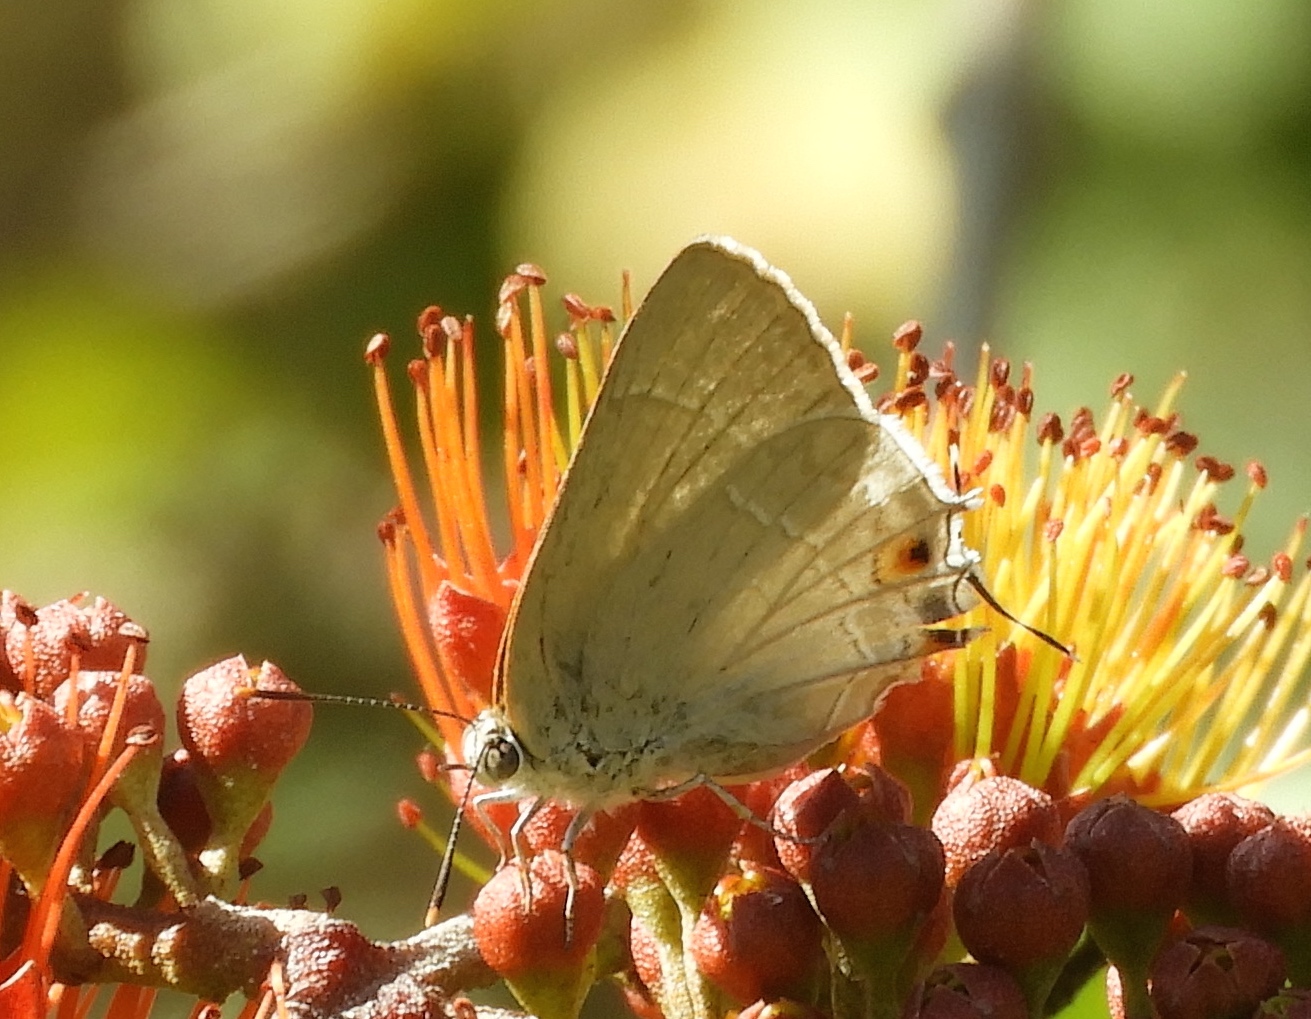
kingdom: Animalia
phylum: Arthropoda
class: Insecta
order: Lepidoptera
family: Lycaenidae
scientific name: Lycaenidae
